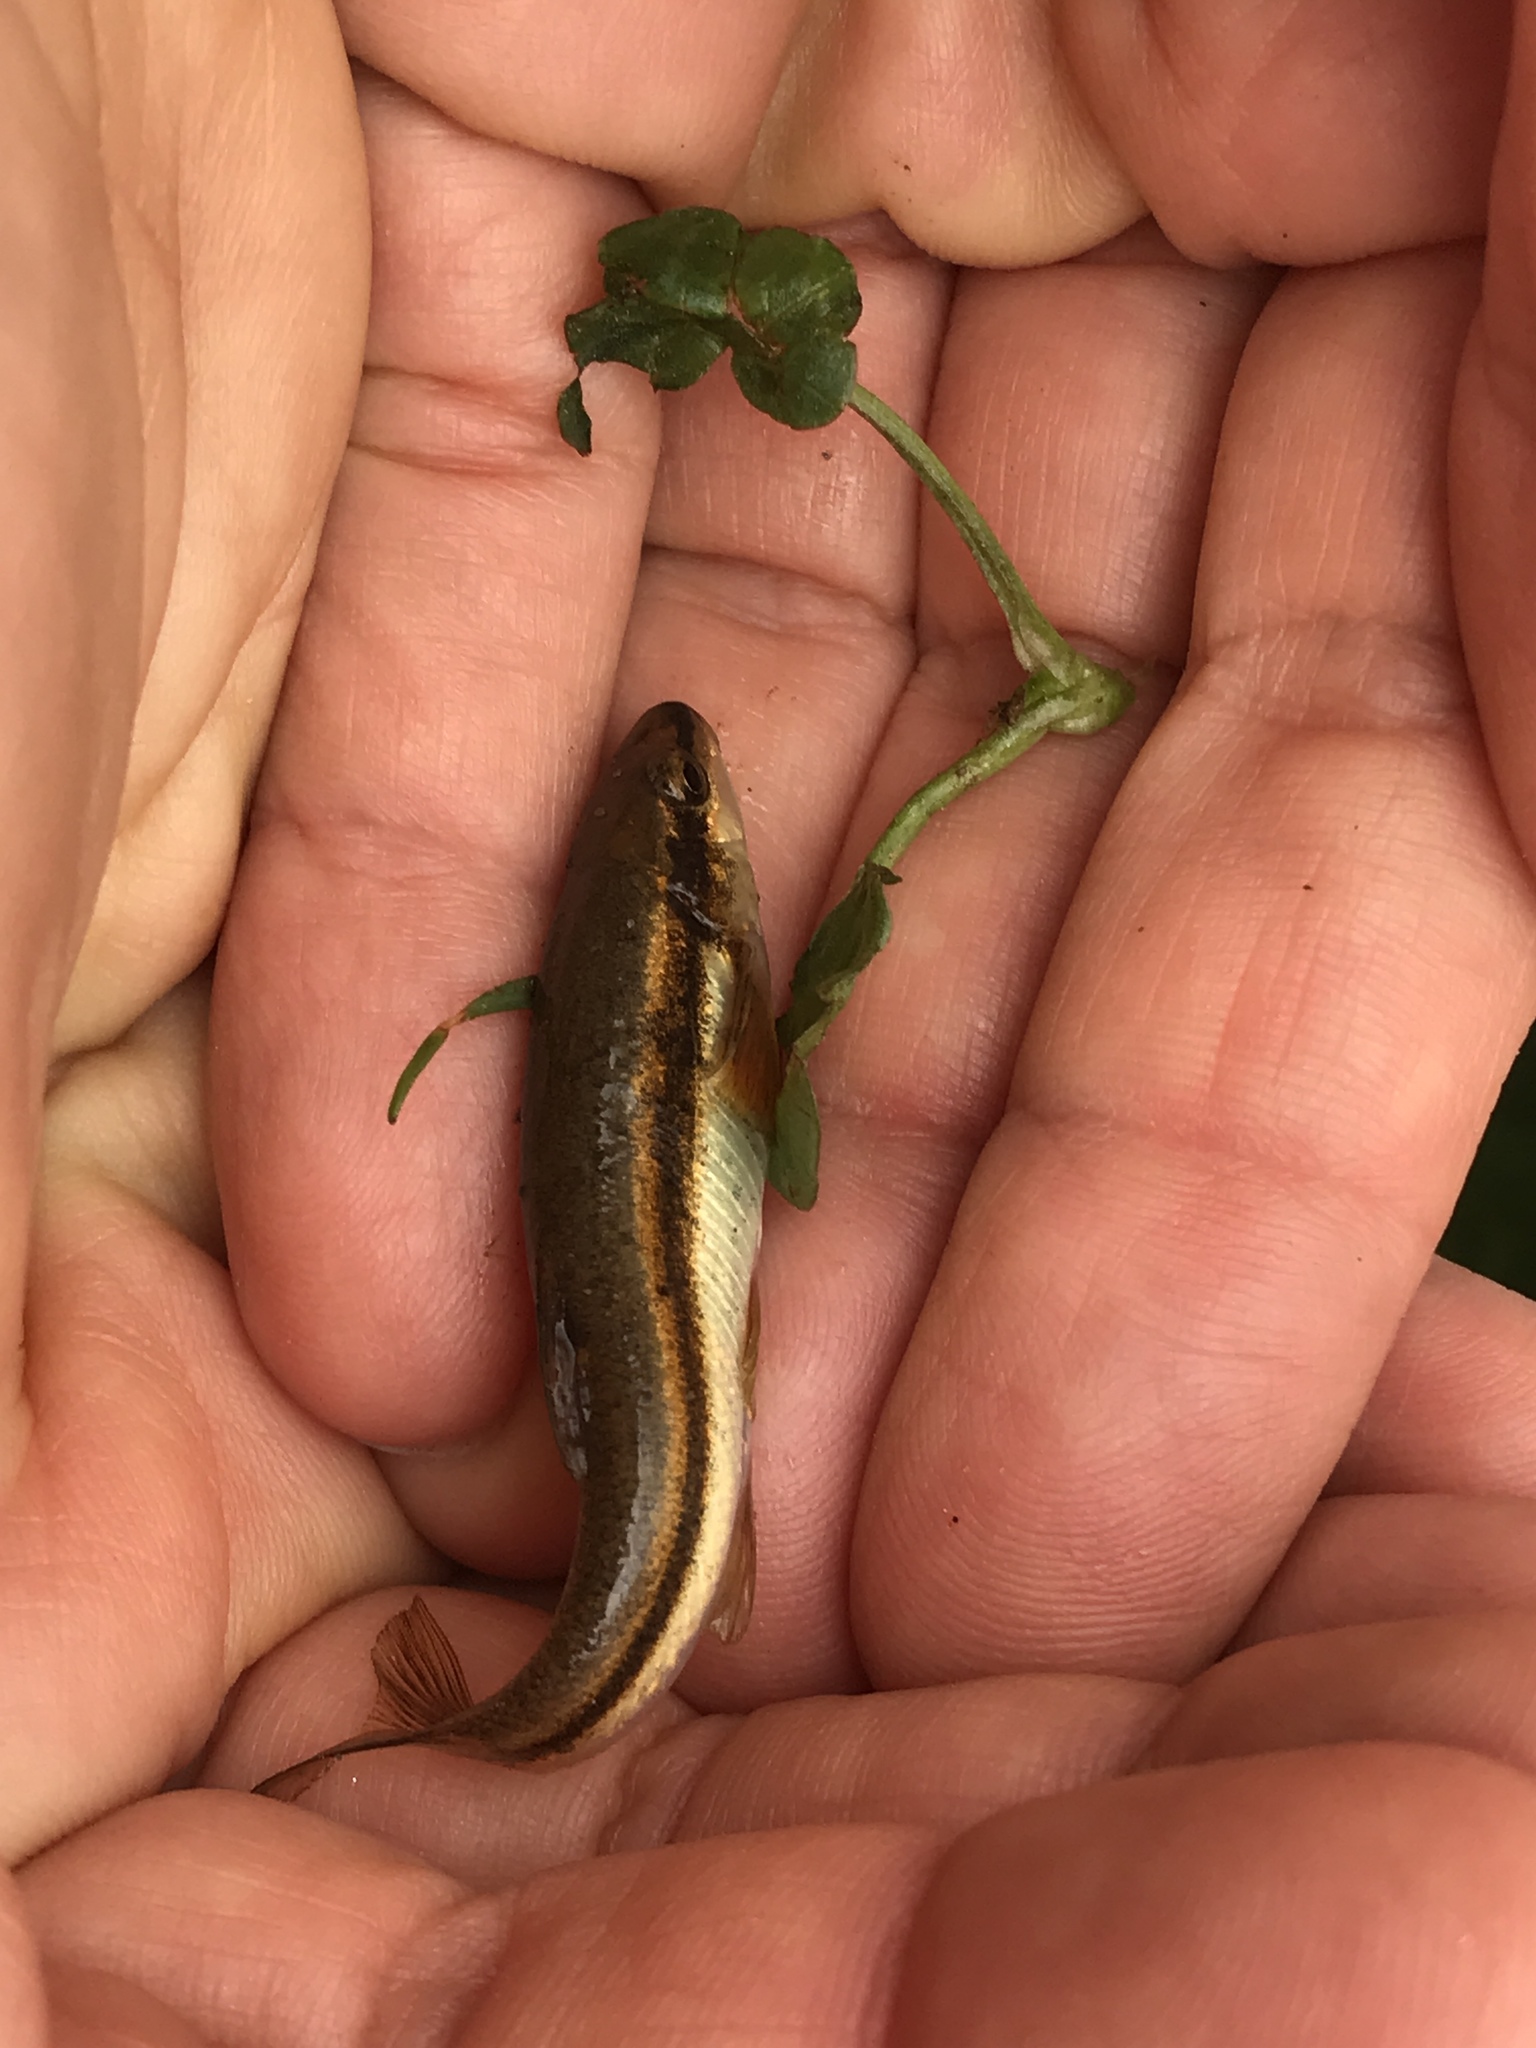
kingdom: Animalia
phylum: Chordata
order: Cypriniformes
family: Cyprinidae
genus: Rhinichthys
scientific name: Rhinichthys atratulus
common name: Eastern blacknose dace
